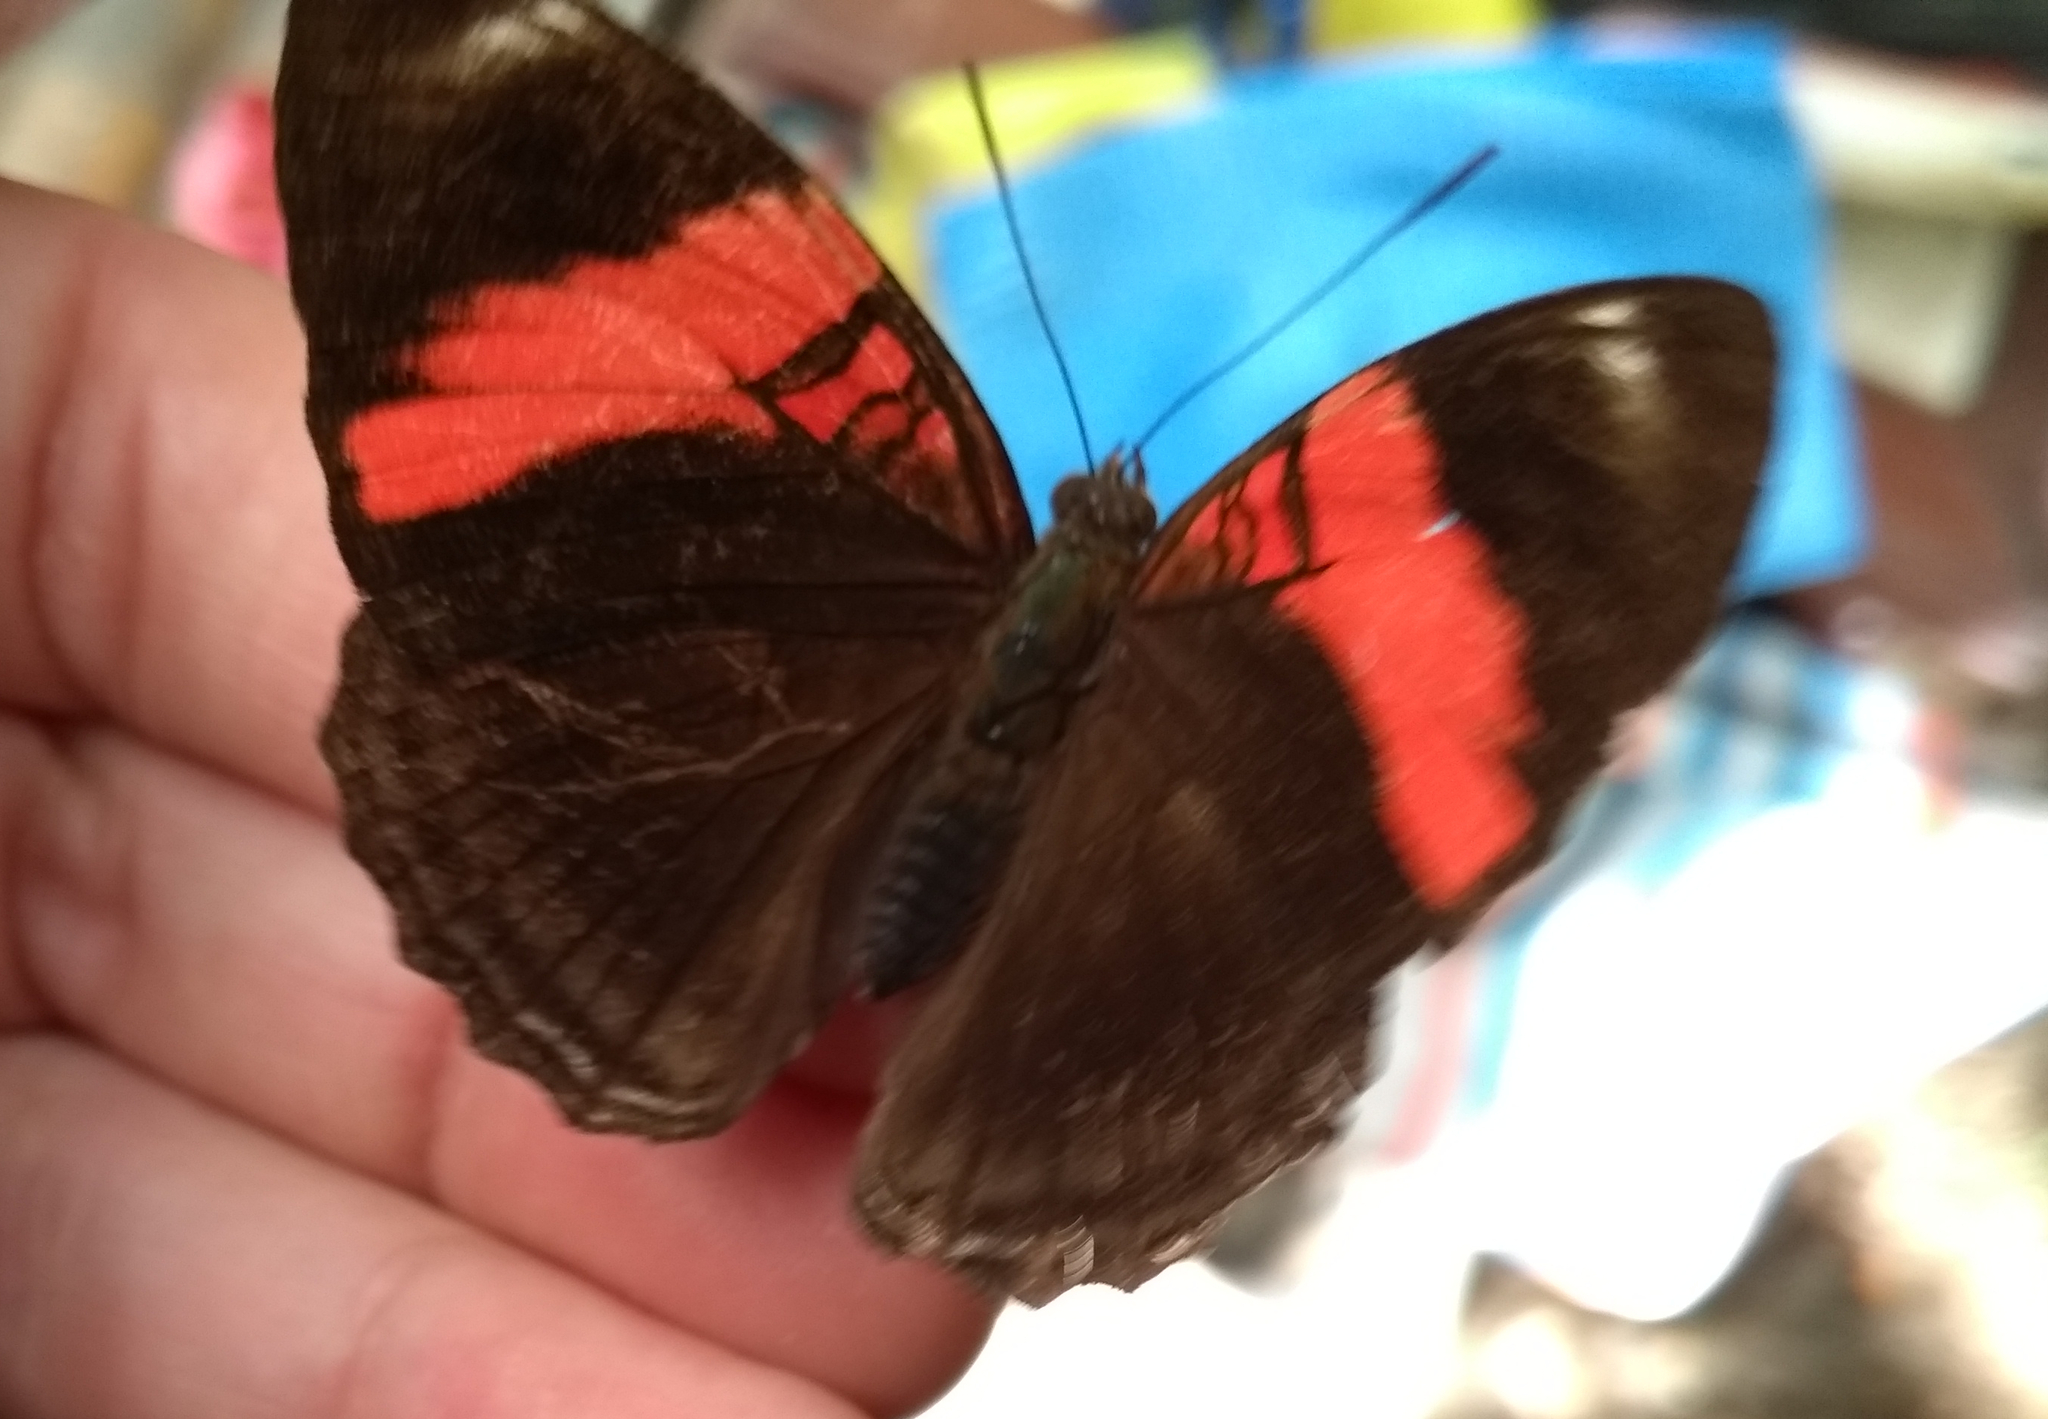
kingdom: Animalia
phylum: Arthropoda
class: Insecta
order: Lepidoptera
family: Nymphalidae
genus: Limenitis
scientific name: Limenitis isis
